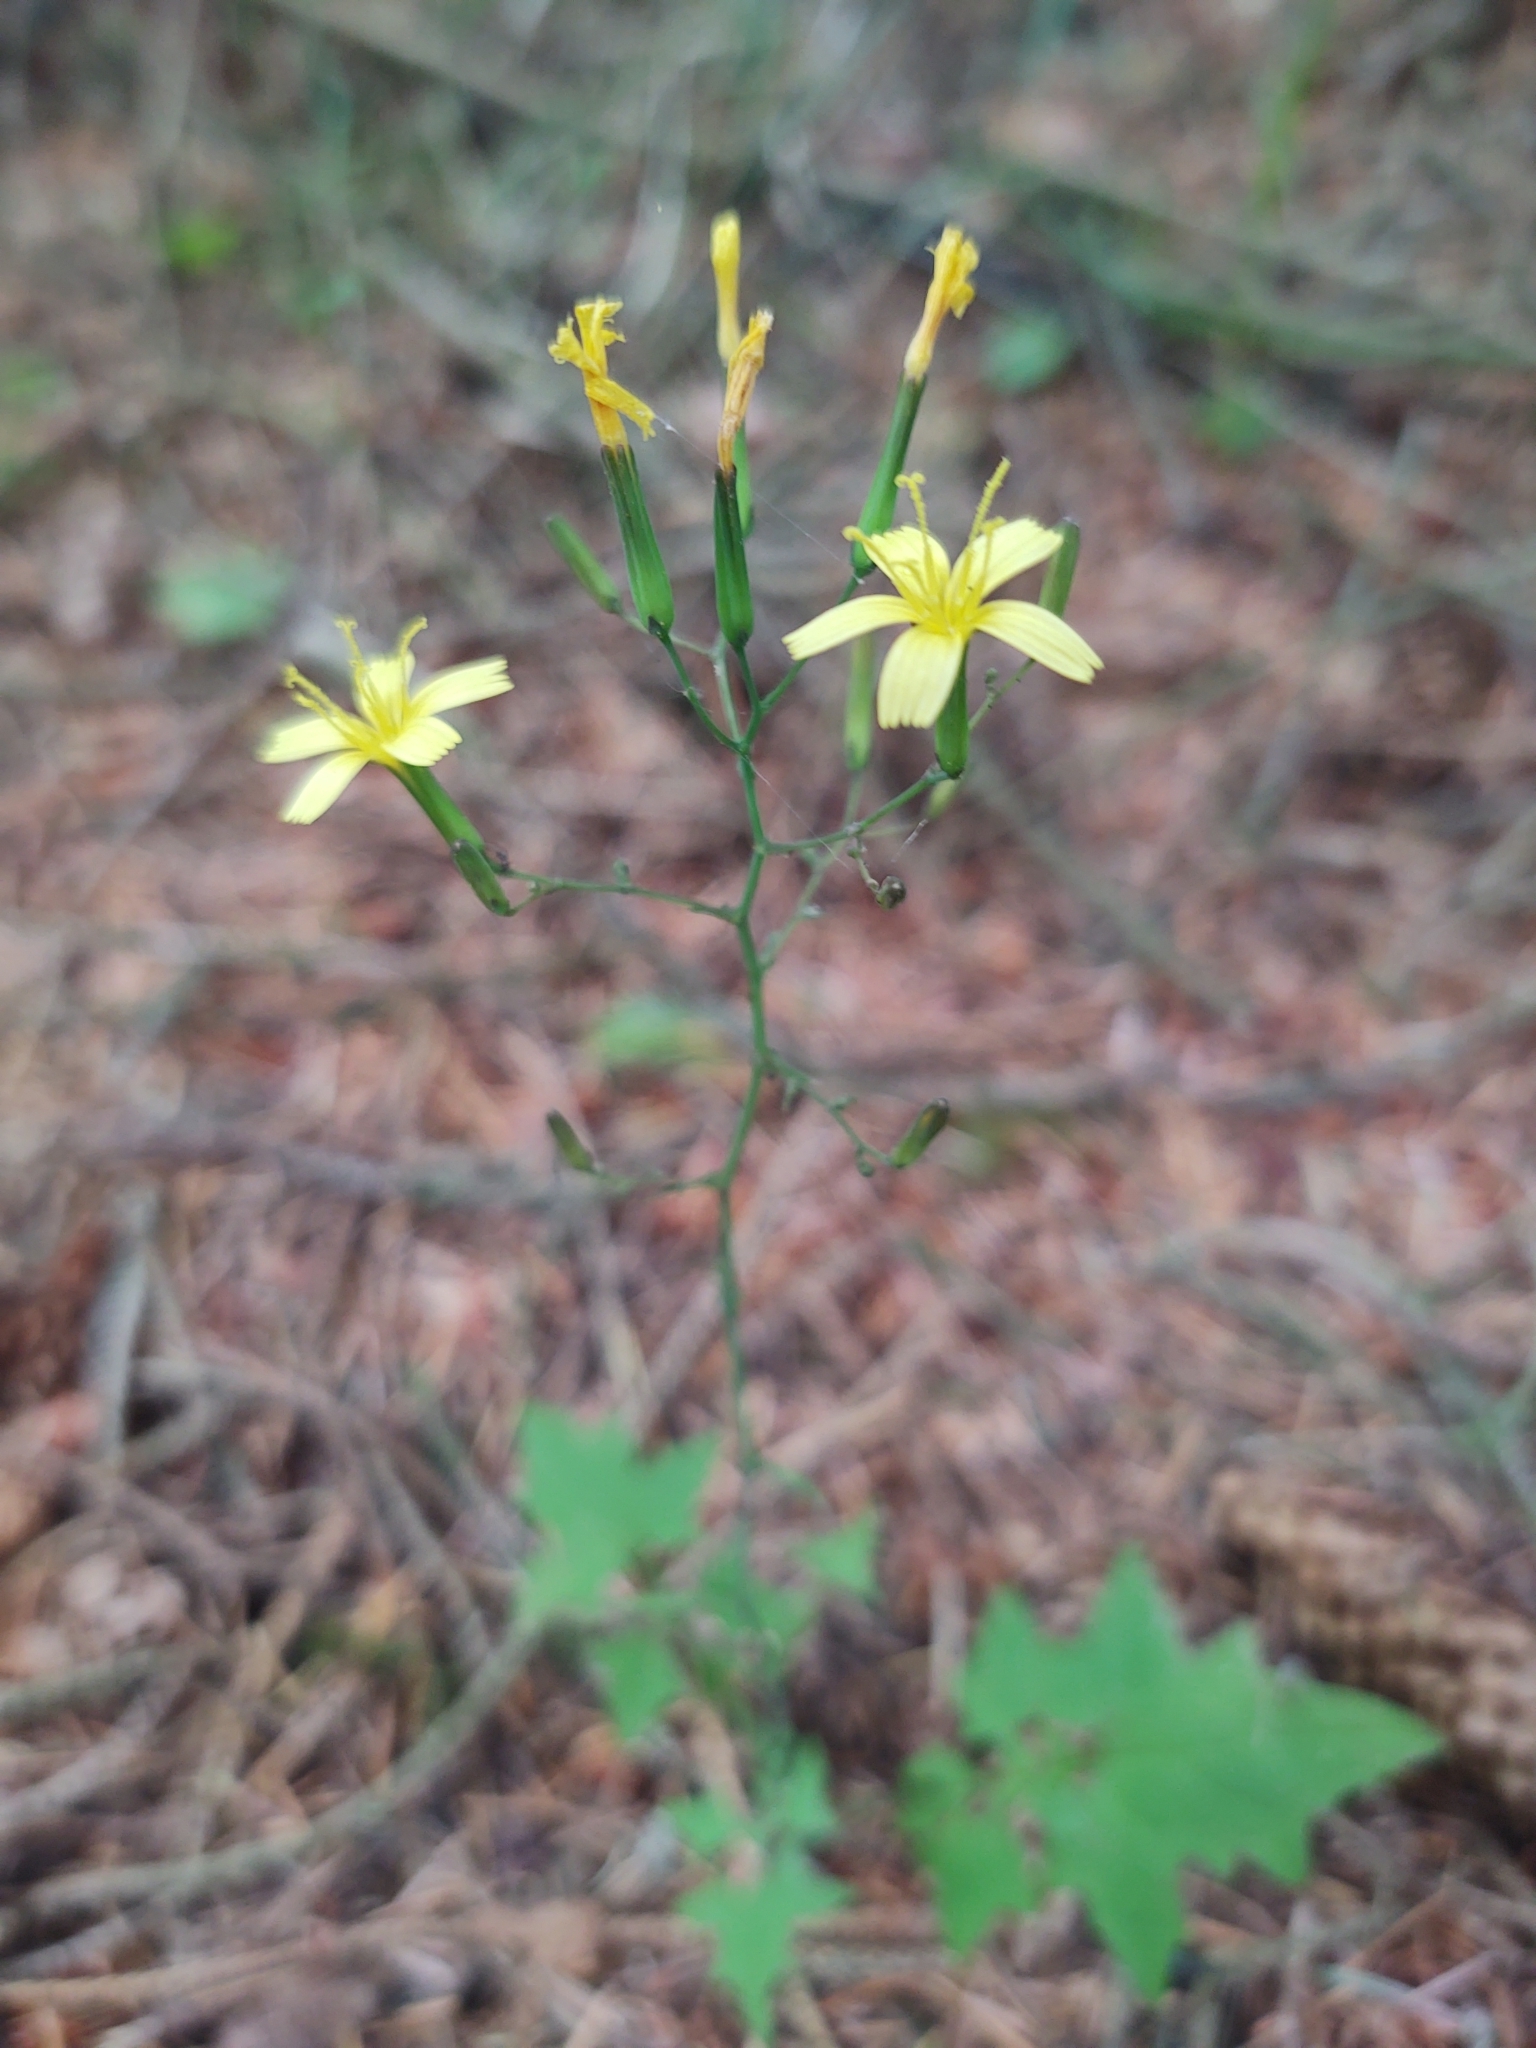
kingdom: Plantae
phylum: Tracheophyta
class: Magnoliopsida
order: Asterales
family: Asteraceae
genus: Mycelis
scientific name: Mycelis muralis
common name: Wall lettuce
